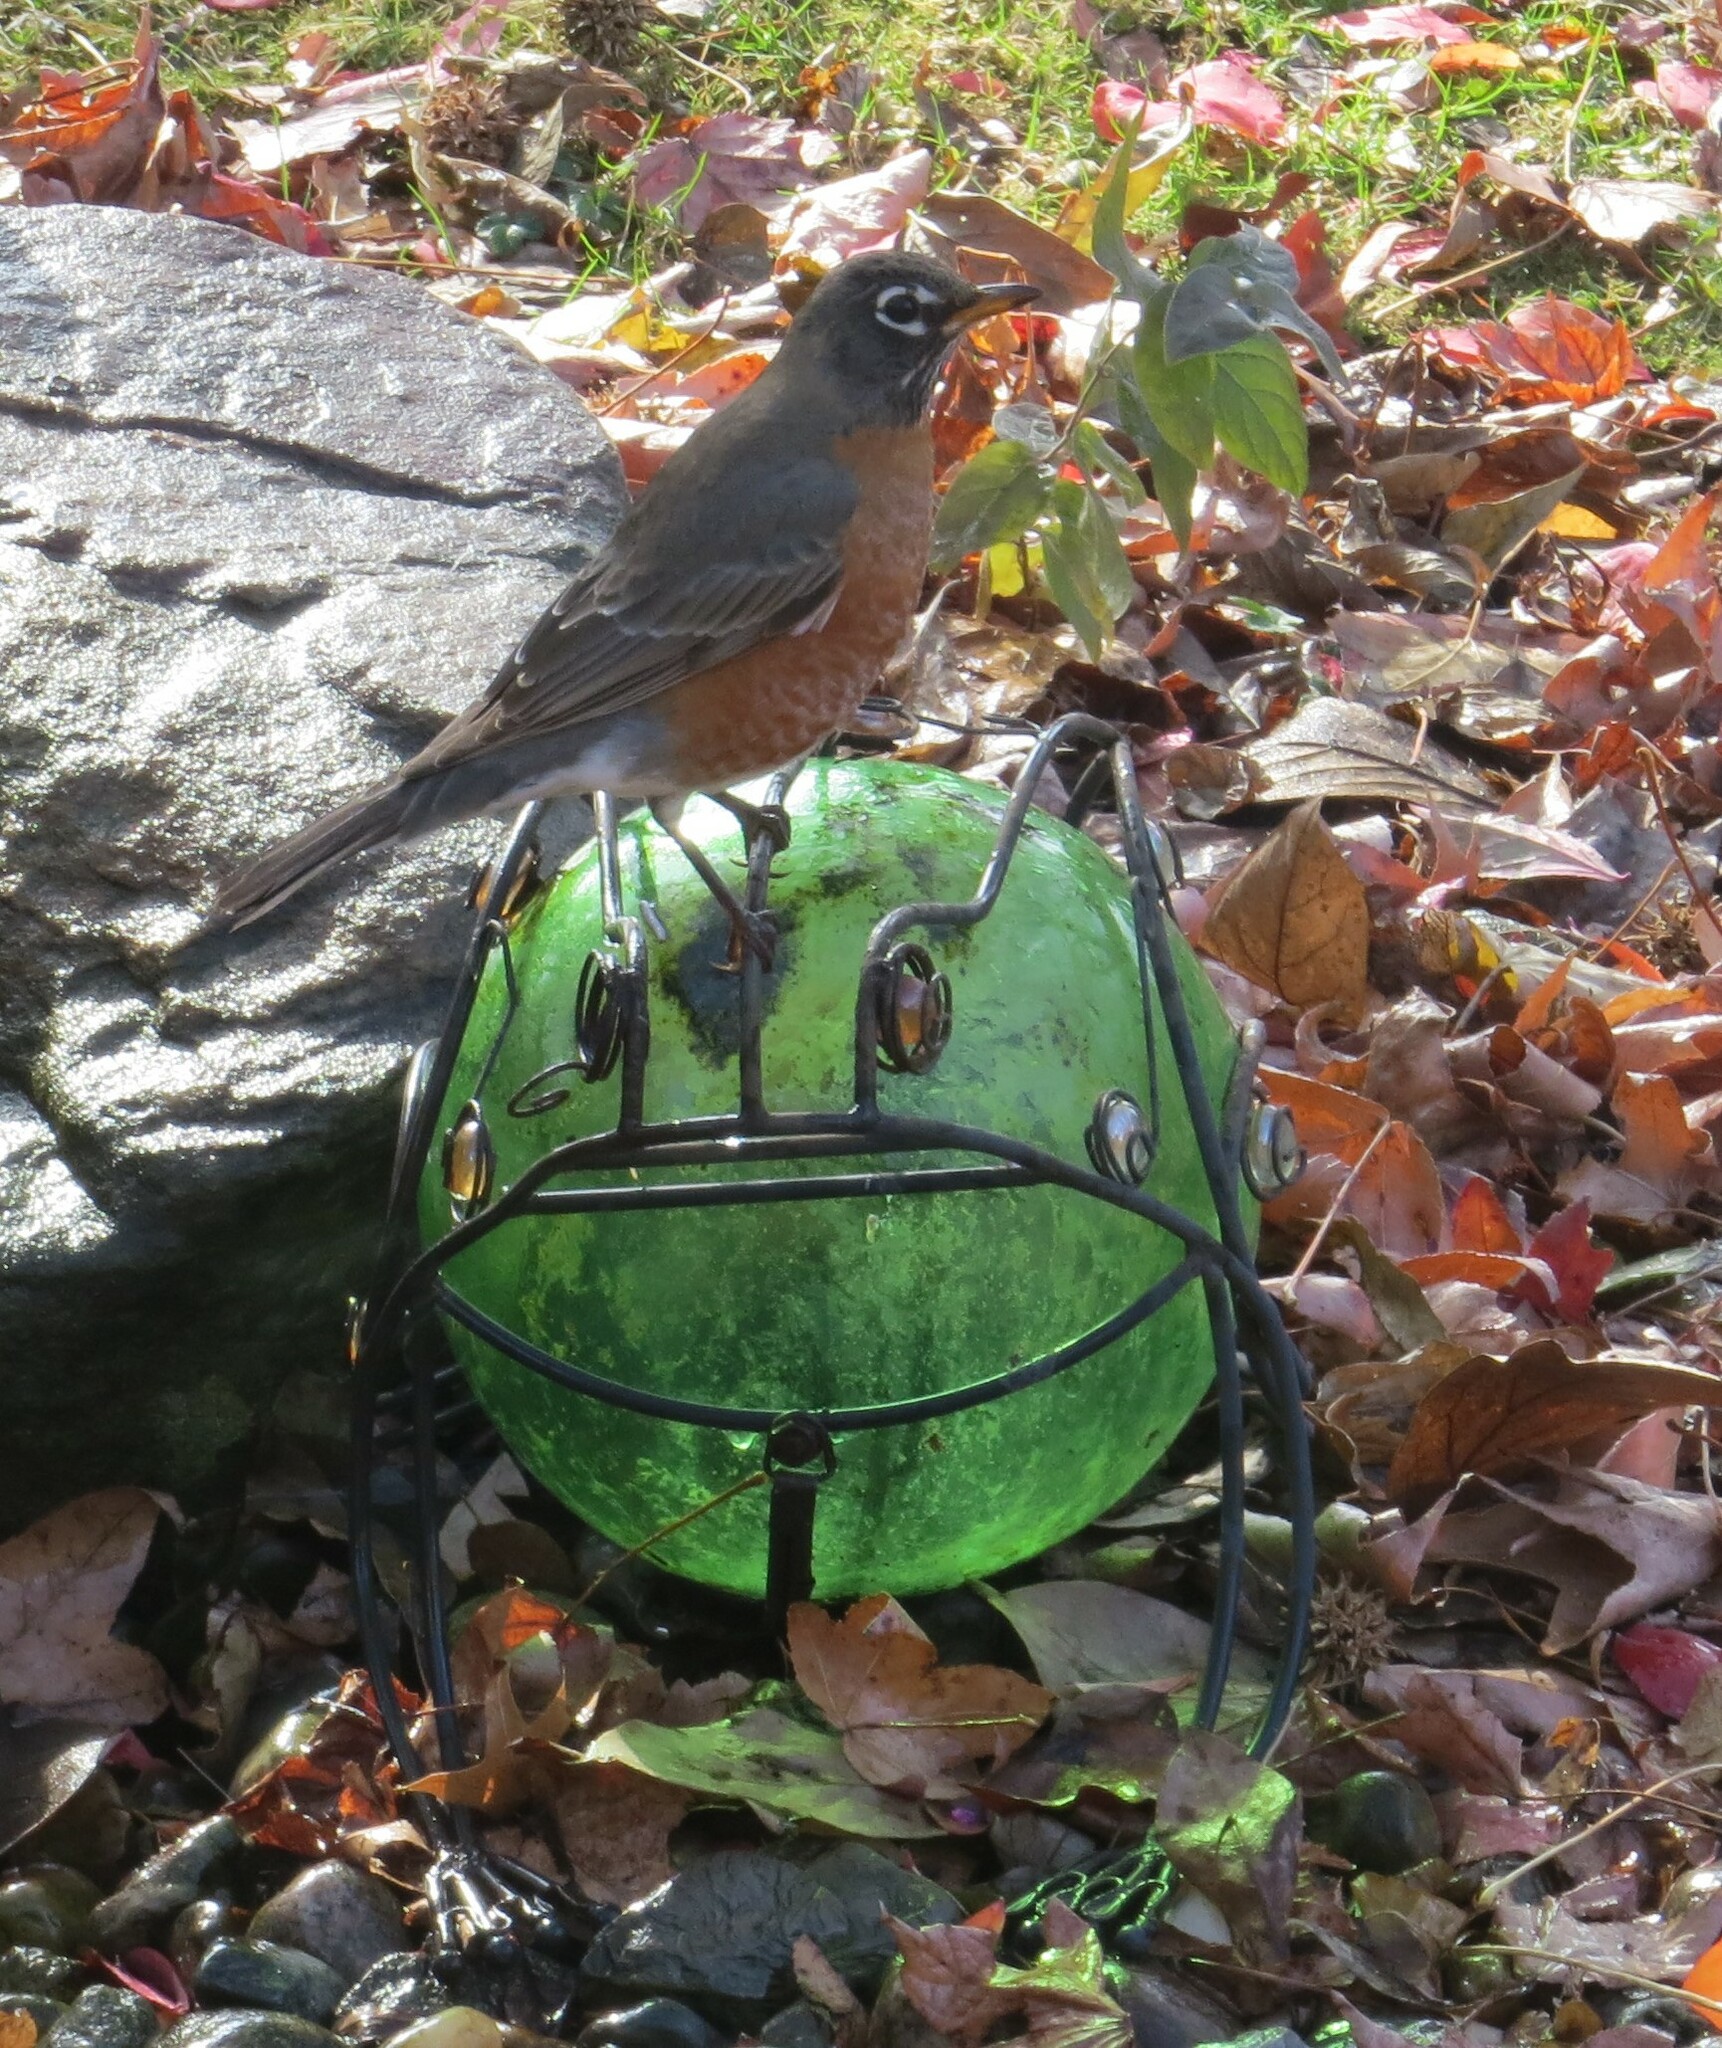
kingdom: Animalia
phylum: Chordata
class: Aves
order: Passeriformes
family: Turdidae
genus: Turdus
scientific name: Turdus migratorius
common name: American robin
